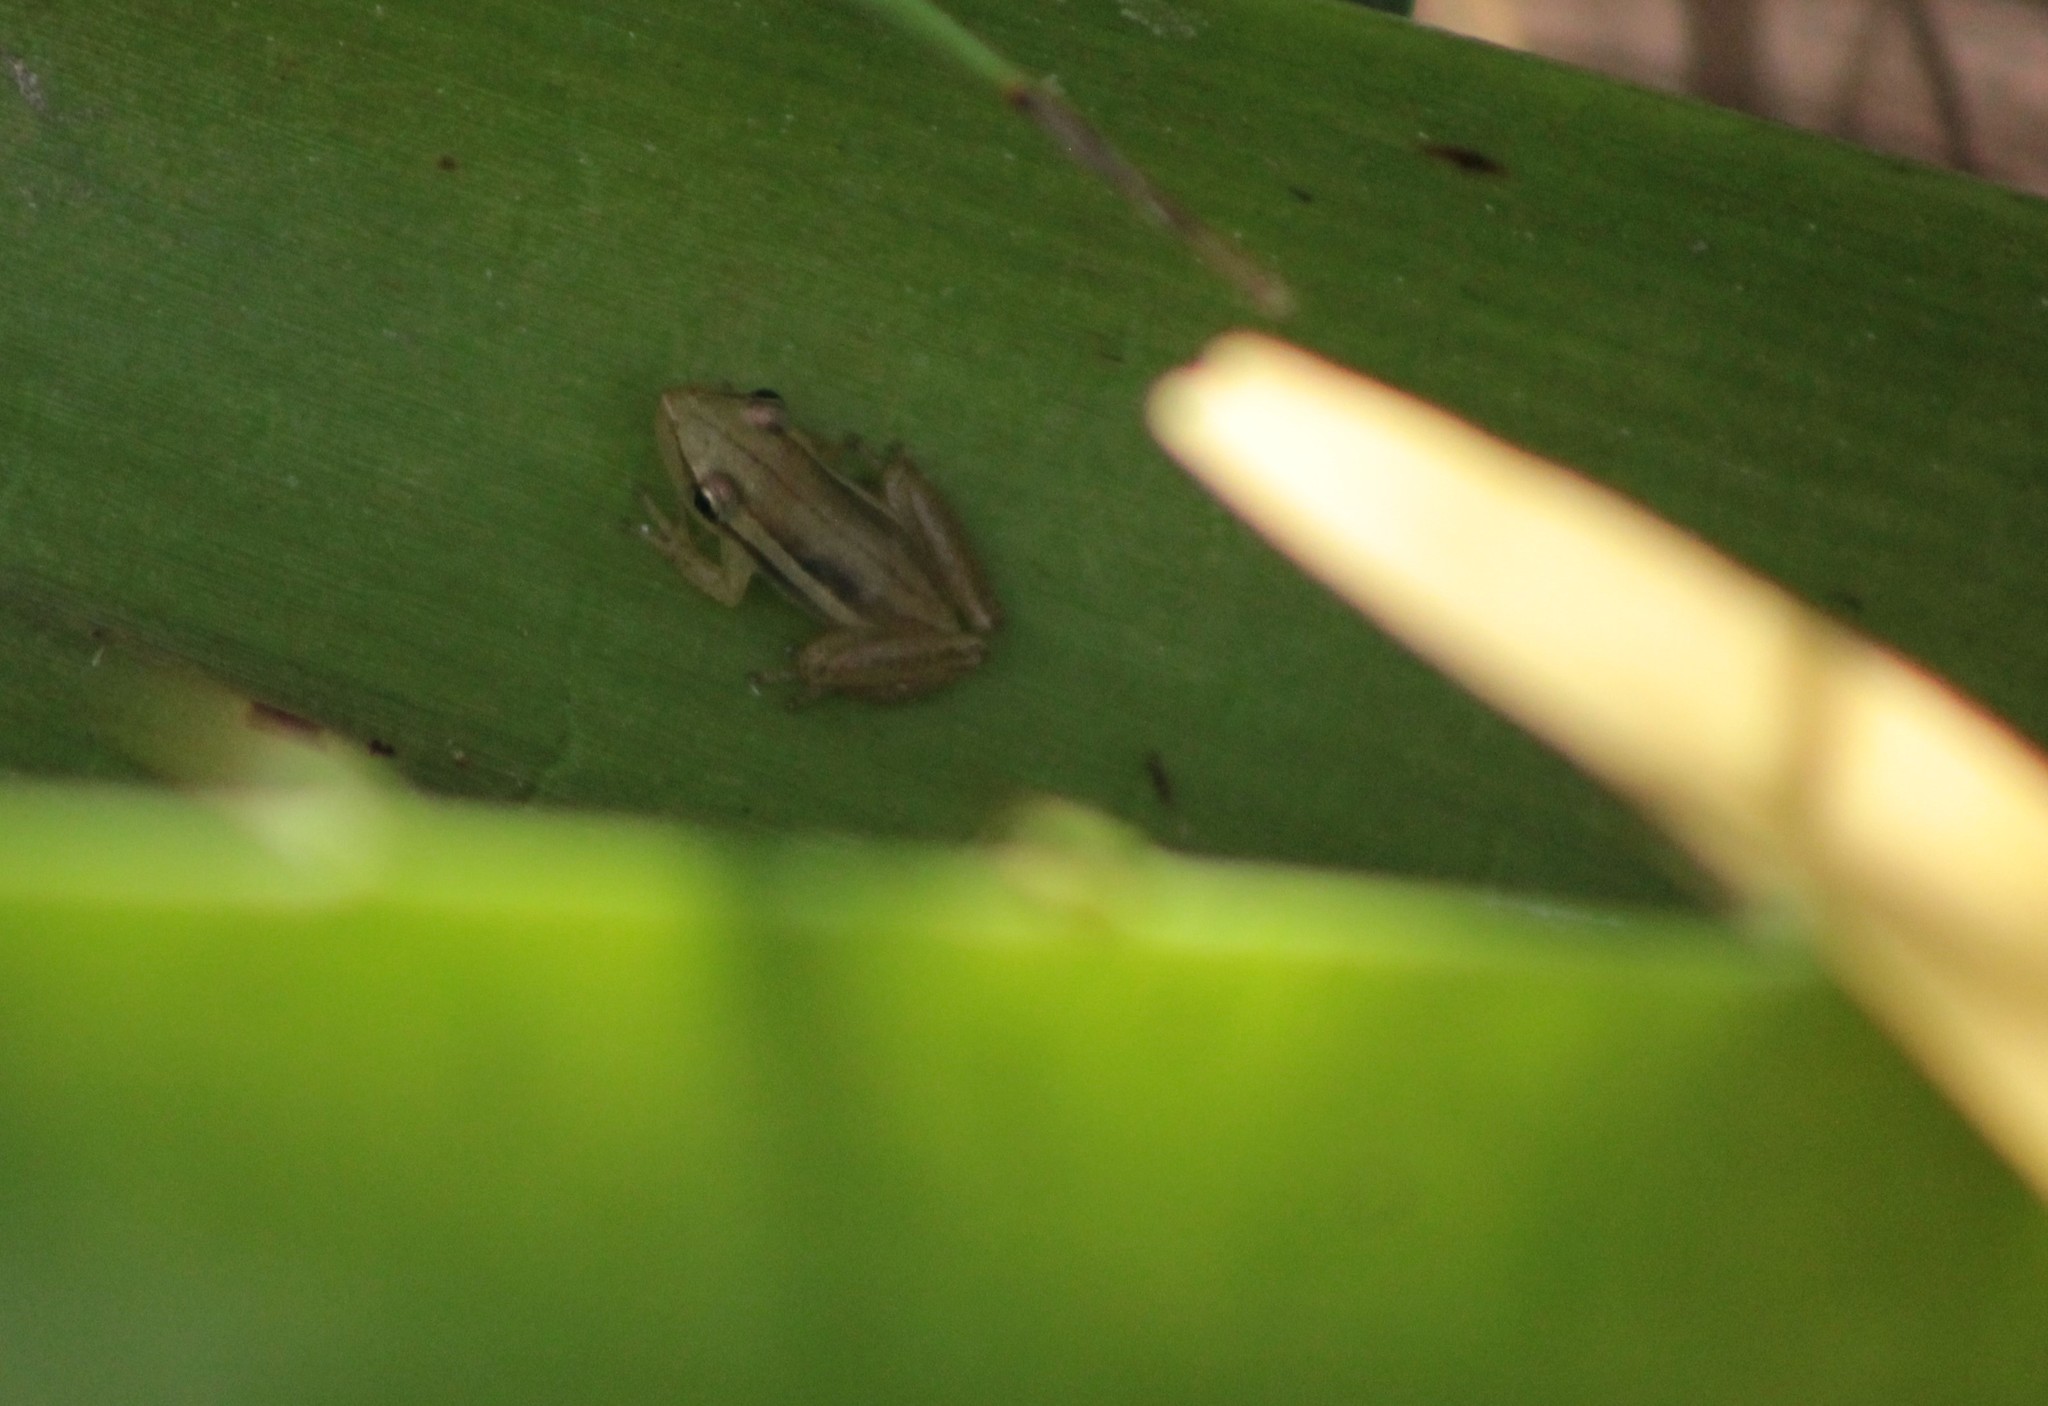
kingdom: Animalia
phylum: Chordata
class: Amphibia
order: Anura
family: Hylidae
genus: Scinax
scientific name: Scinax squalirostris
